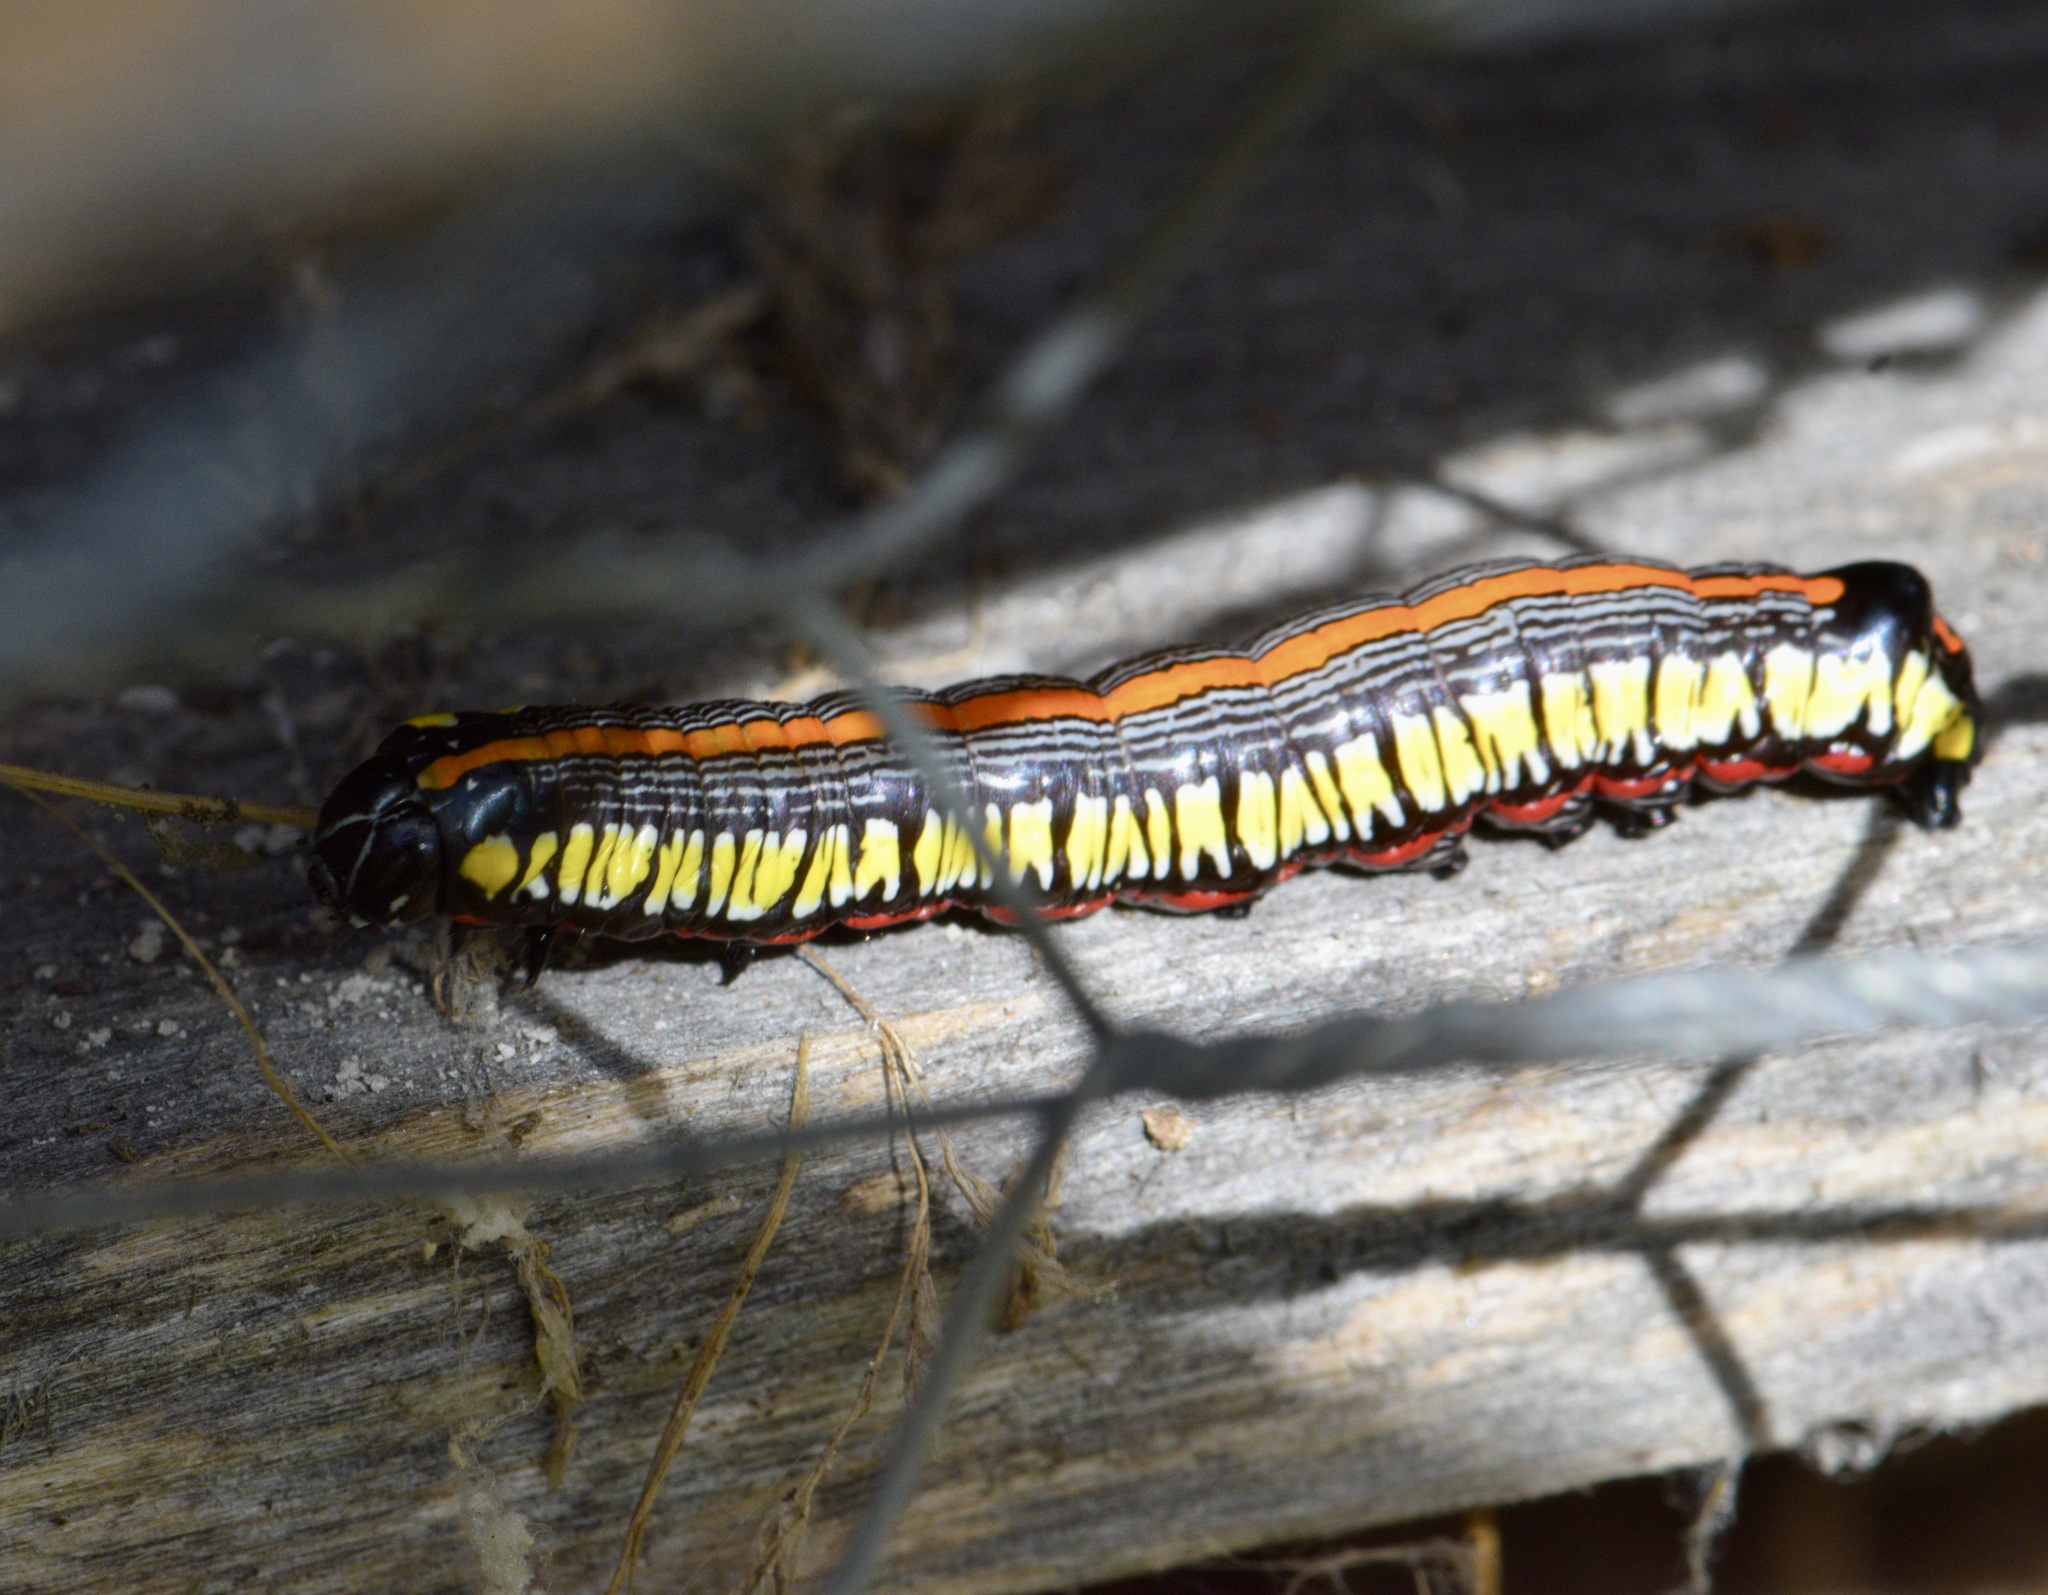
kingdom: Animalia
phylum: Arthropoda
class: Insecta
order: Lepidoptera
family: Noctuidae
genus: Cucullia
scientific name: Cucullia convexipennis
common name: Brown-hooded owlet
